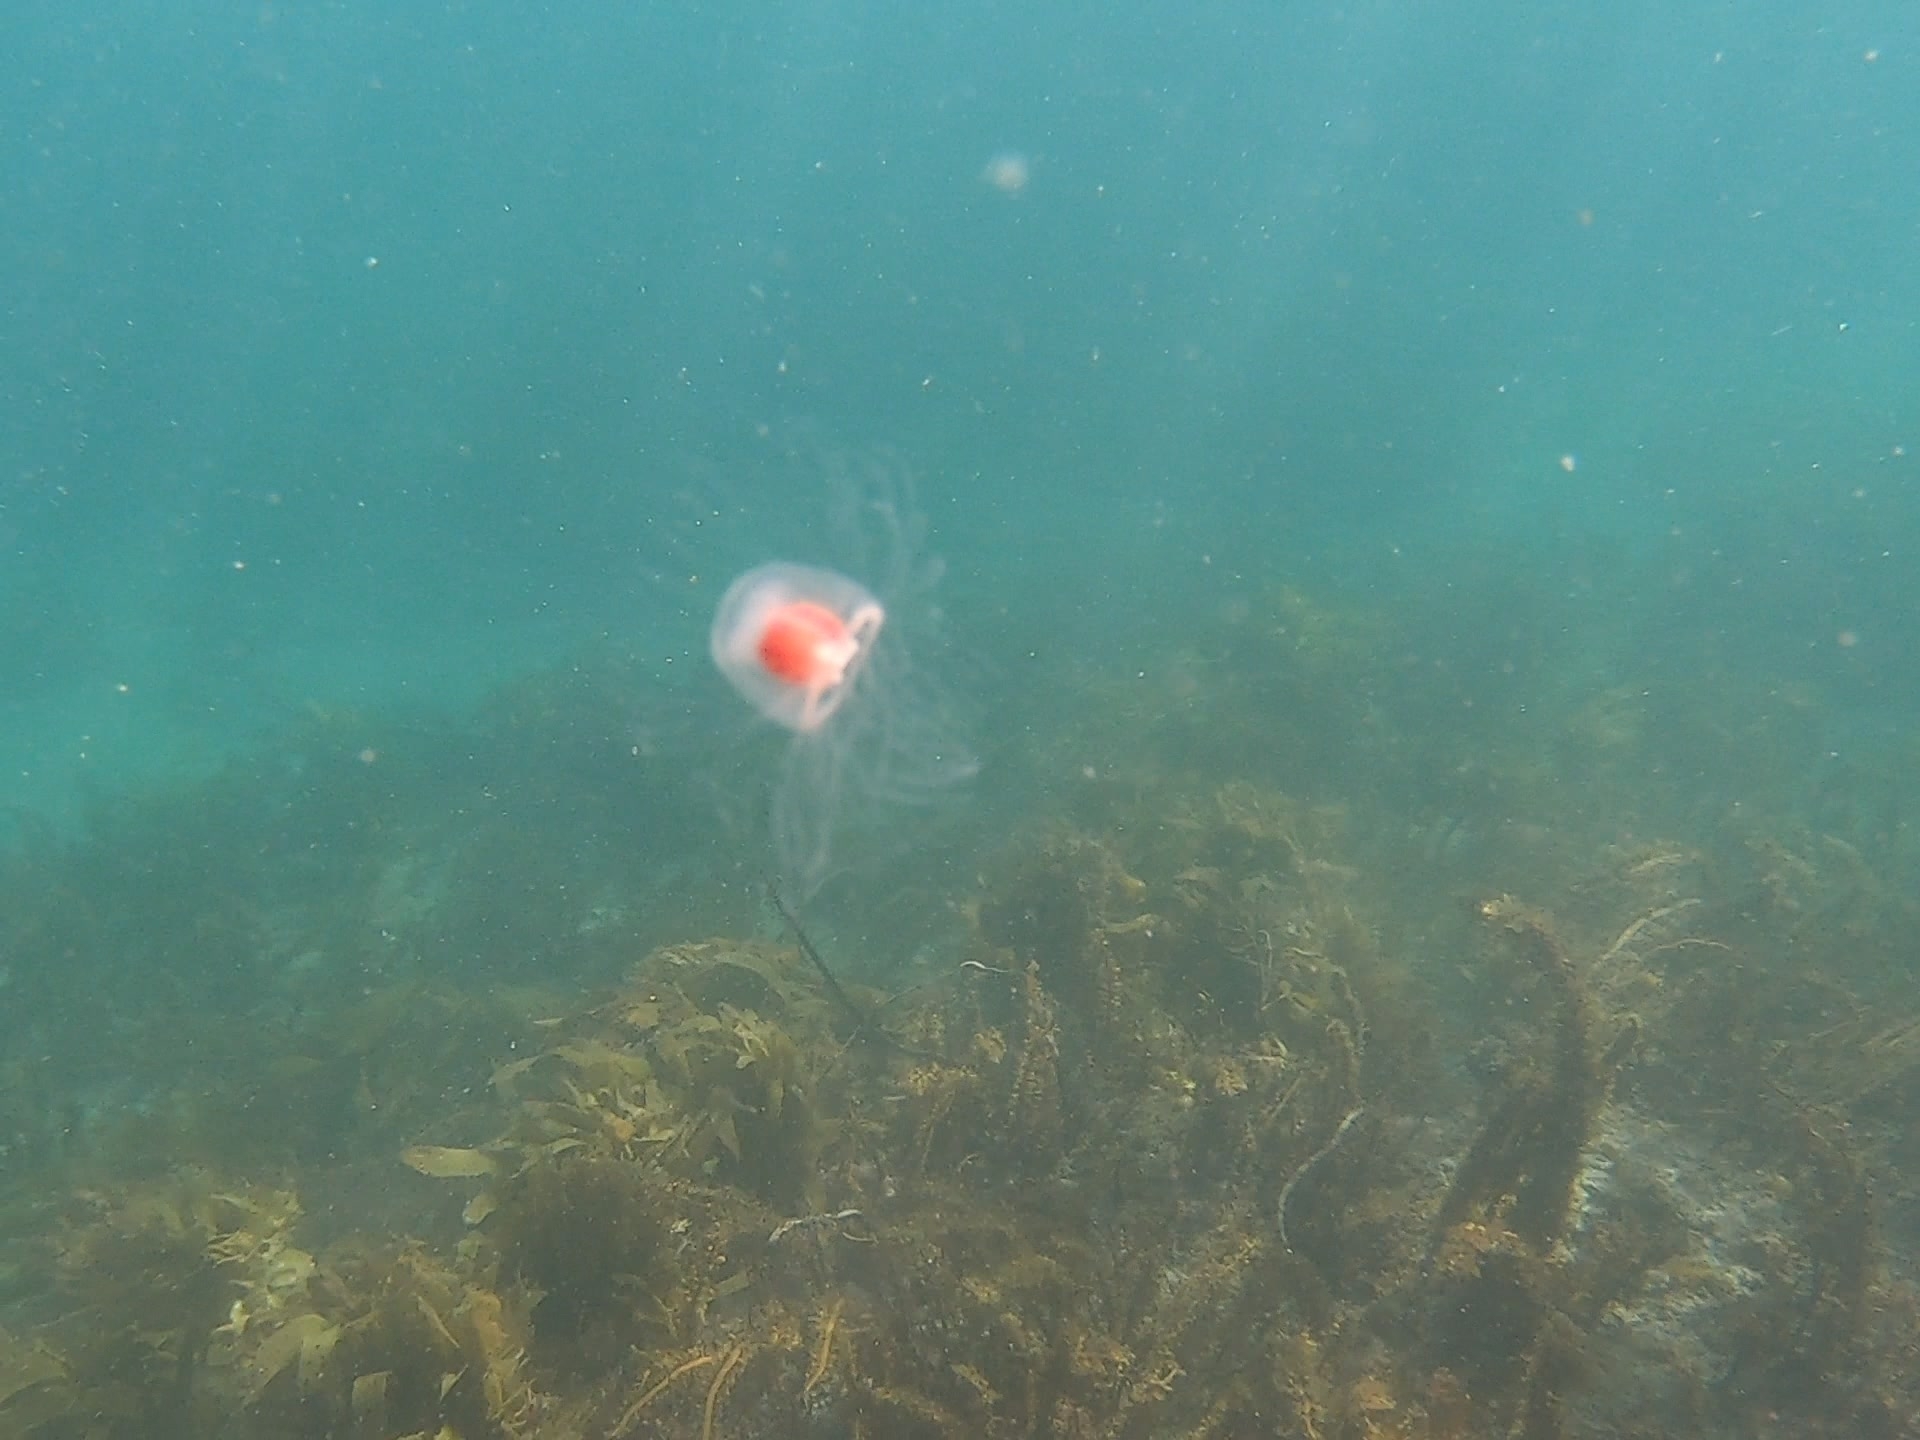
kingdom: Animalia
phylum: Cnidaria
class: Hydrozoa
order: Anthoathecata
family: Oceaniidae
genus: Turritopsis
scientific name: Turritopsis rubra
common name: Crimson jelly
